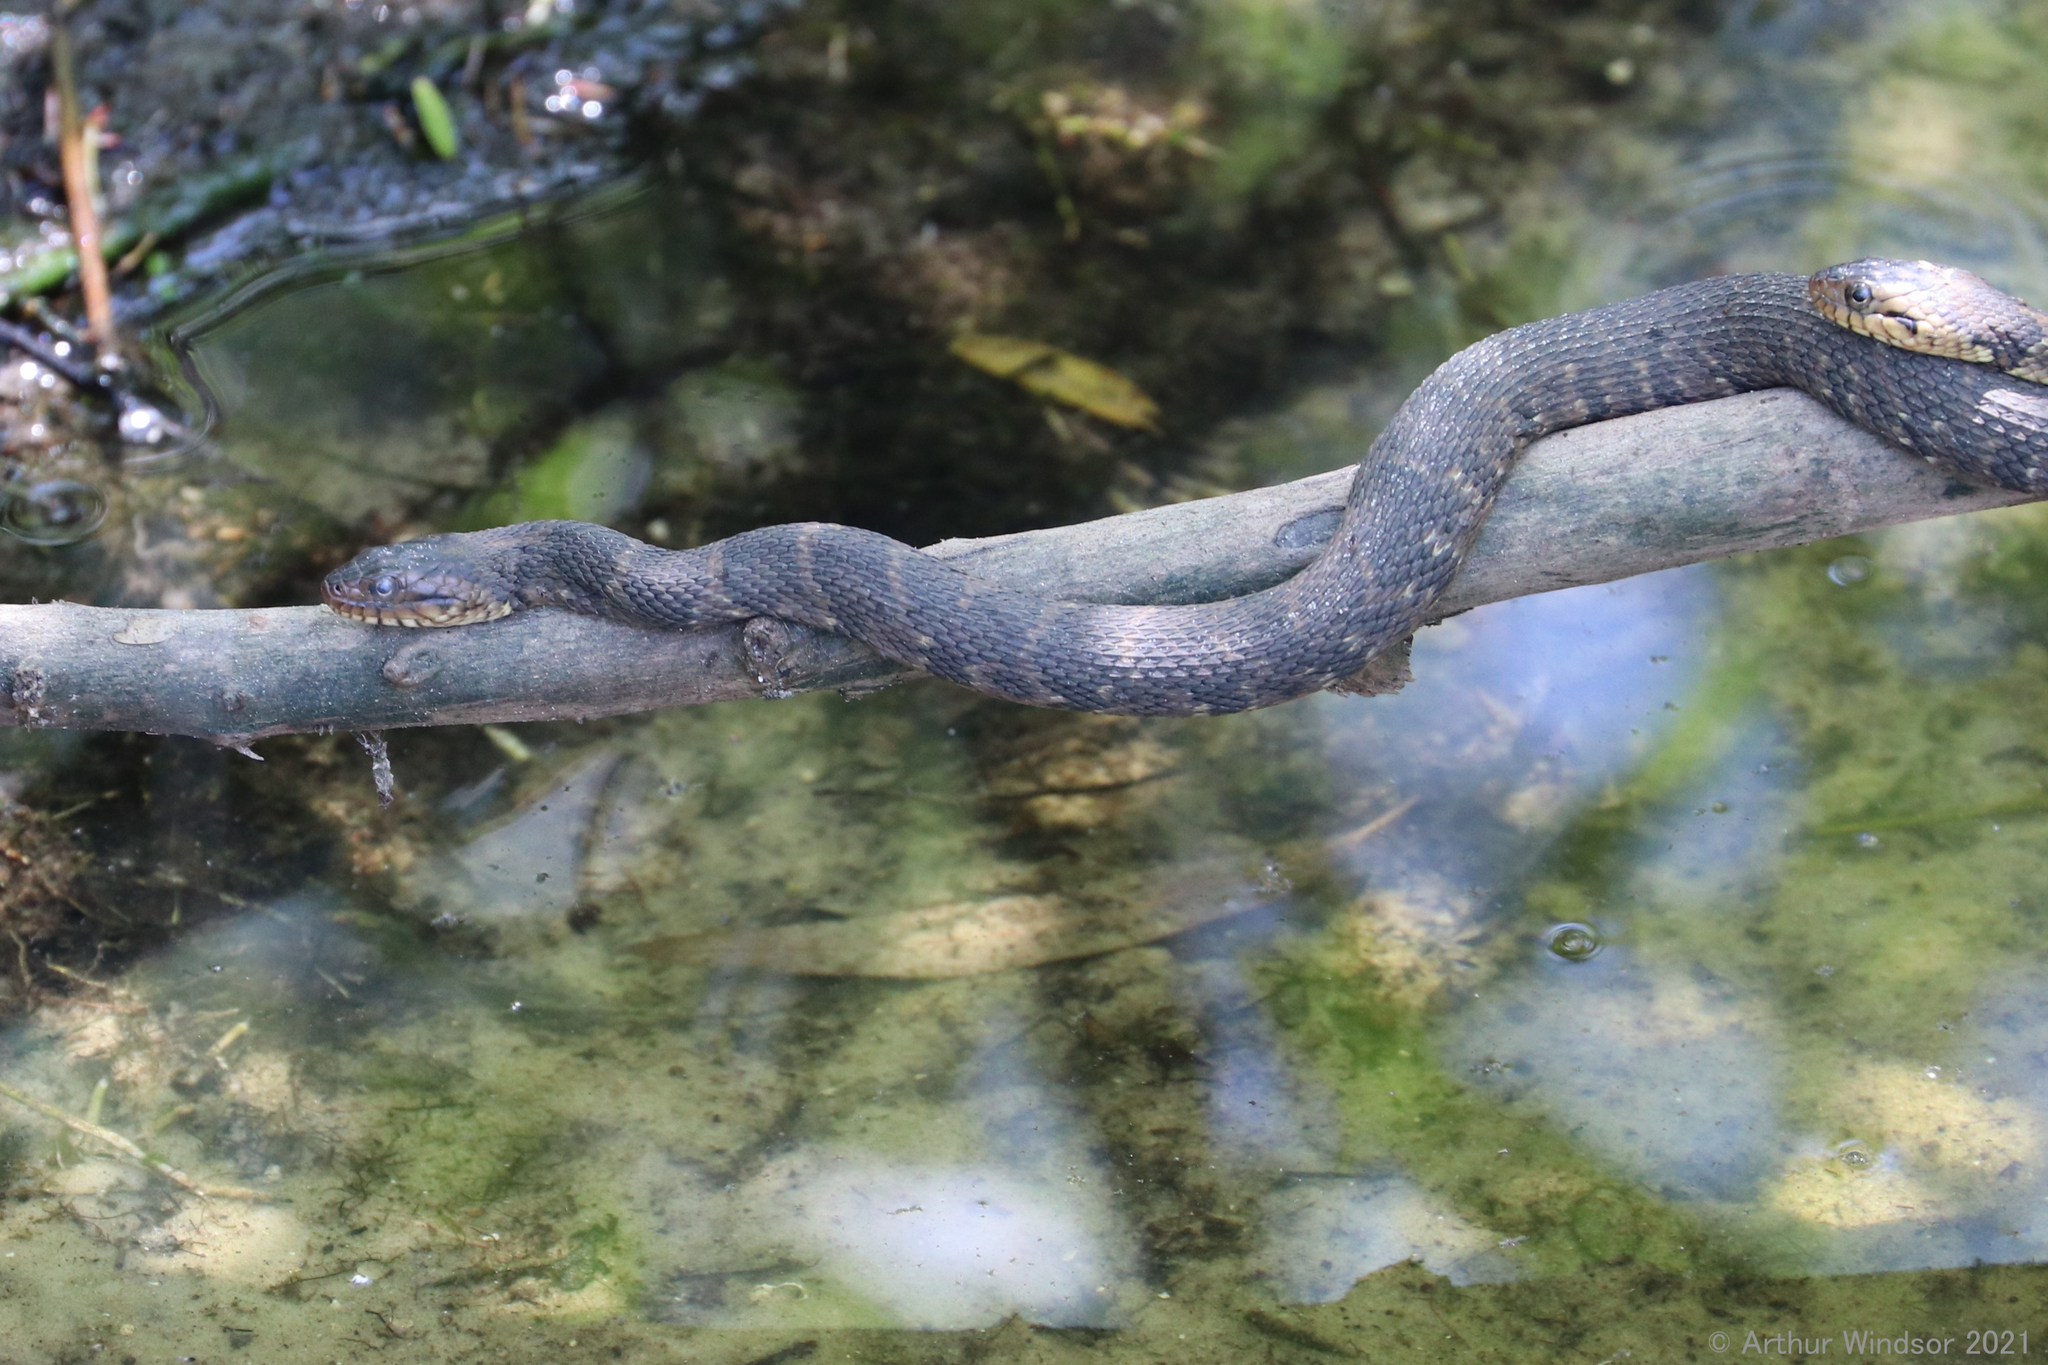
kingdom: Animalia
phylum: Chordata
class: Squamata
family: Colubridae
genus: Nerodia
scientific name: Nerodia fasciata
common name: Southern water snake
